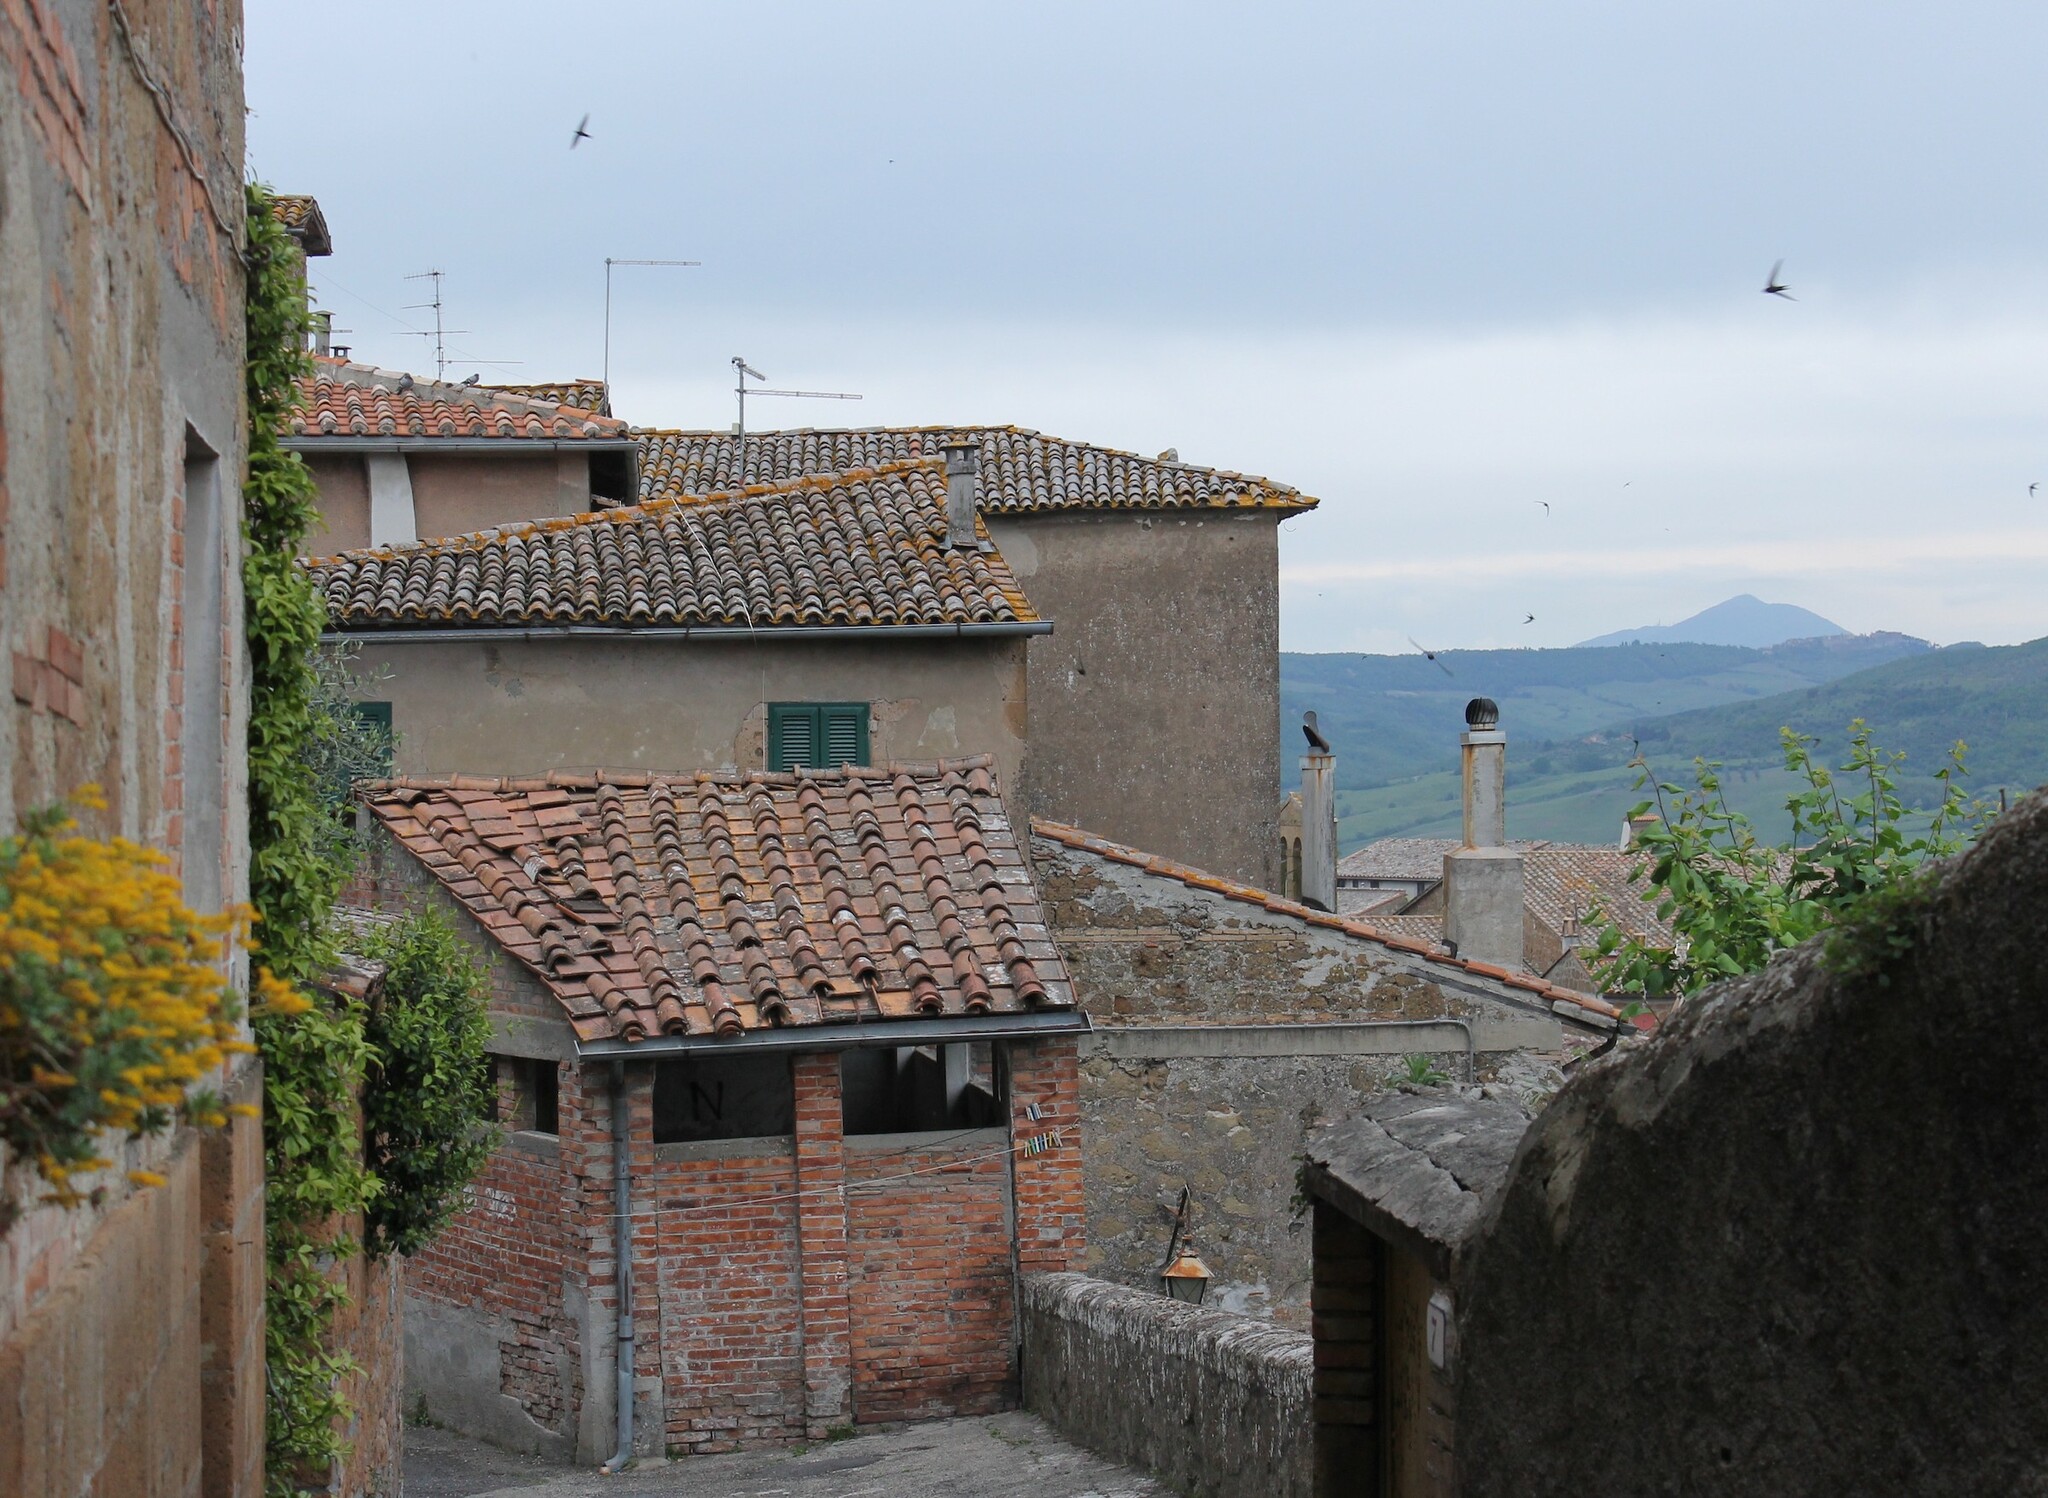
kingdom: Animalia
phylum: Chordata
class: Aves
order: Apodiformes
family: Apodidae
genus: Apus
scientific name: Apus apus
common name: Common swift
